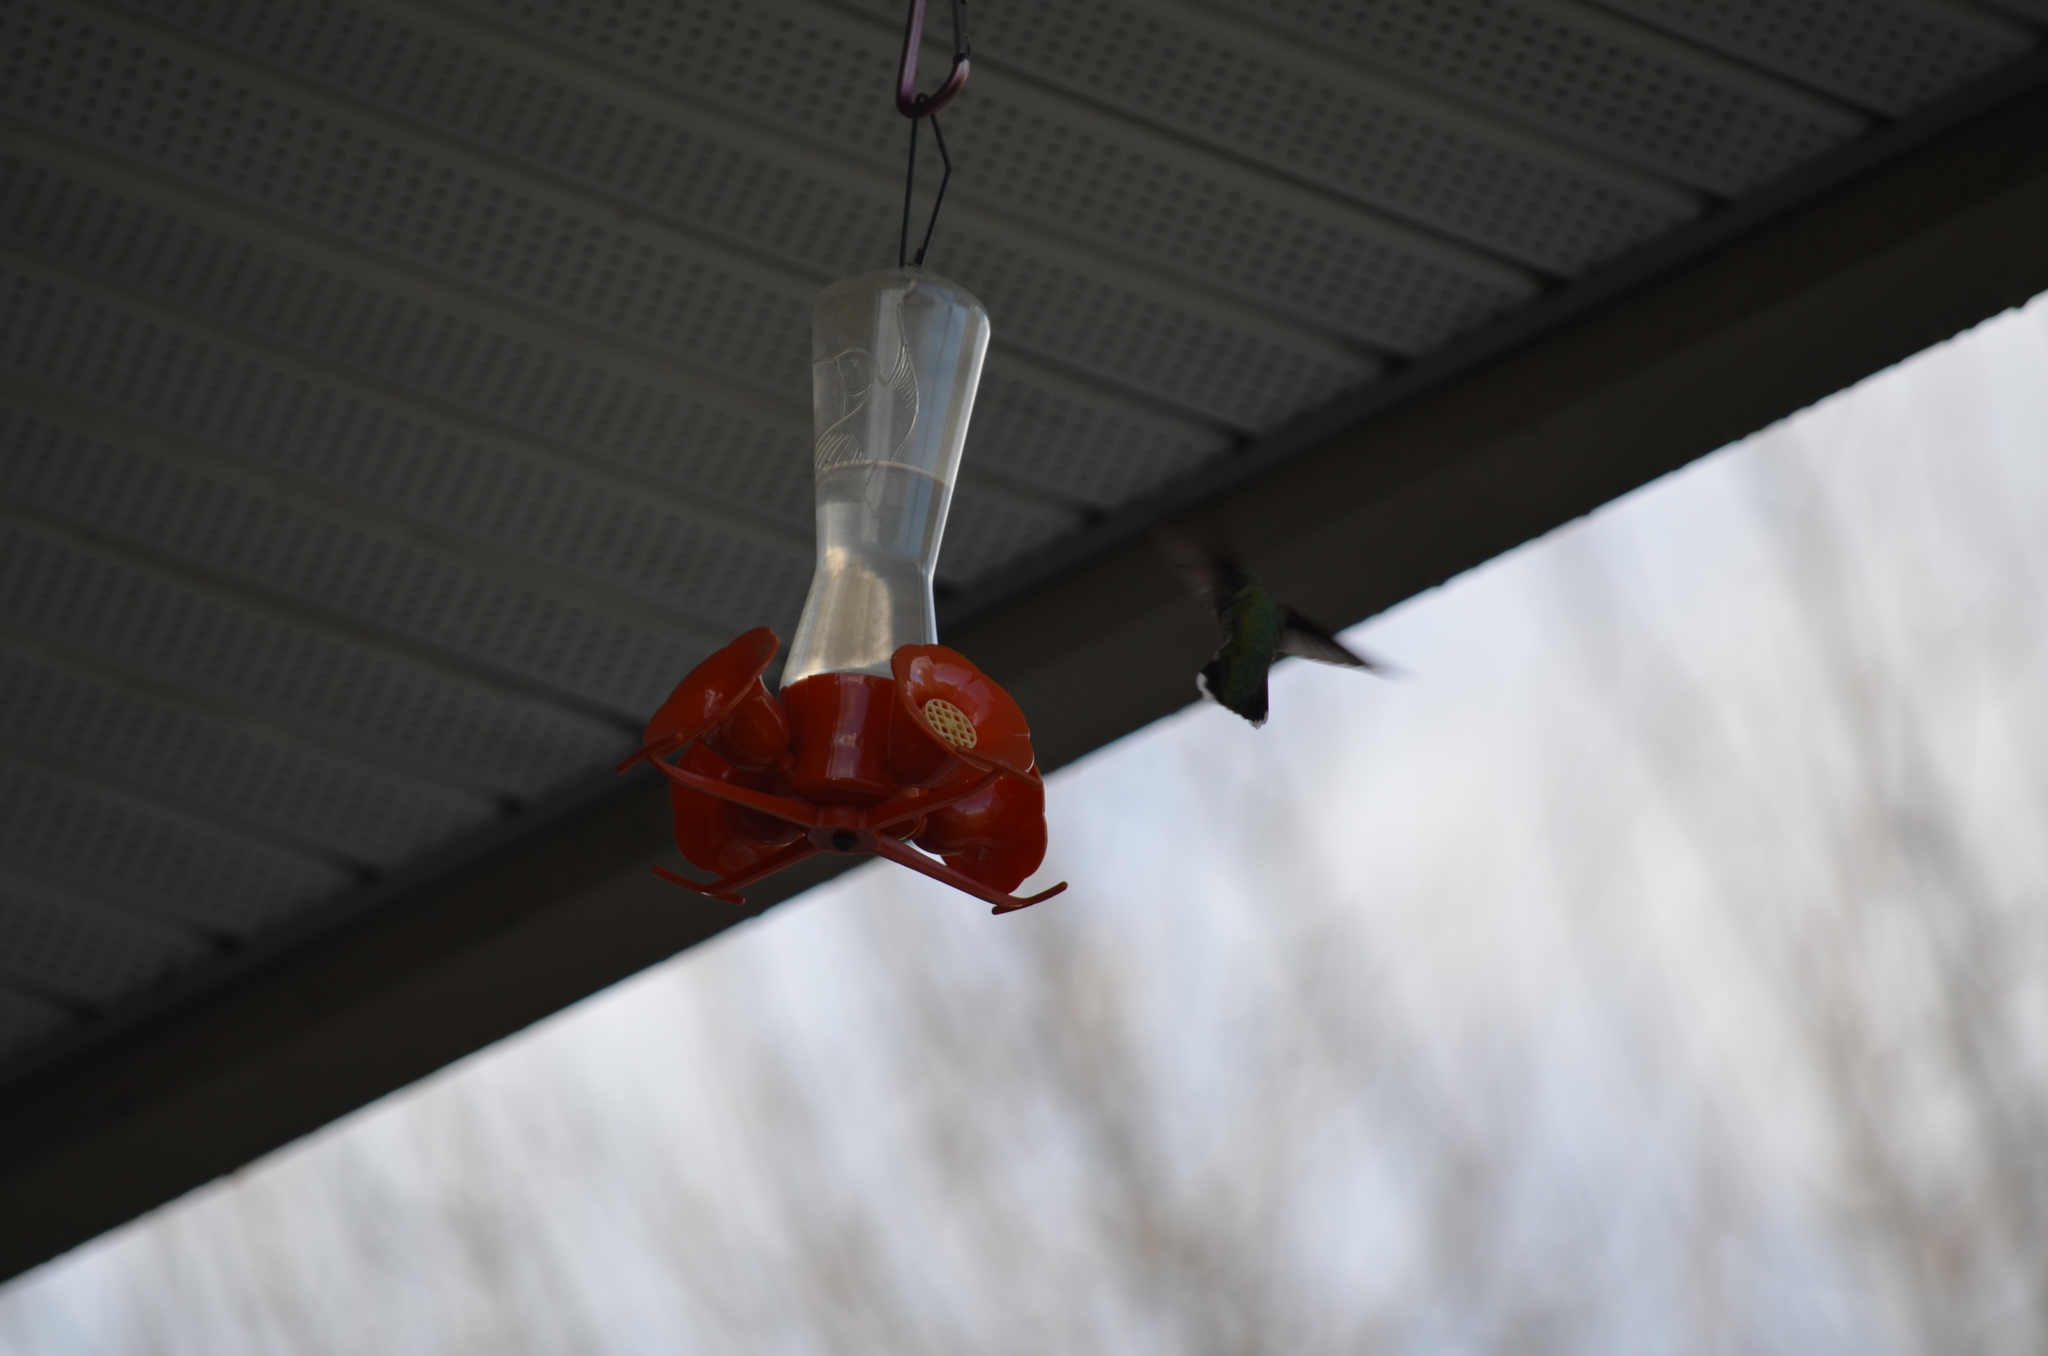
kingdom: Animalia
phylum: Chordata
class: Aves
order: Apodiformes
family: Trochilidae
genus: Calypte
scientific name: Calypte anna
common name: Anna's hummingbird
